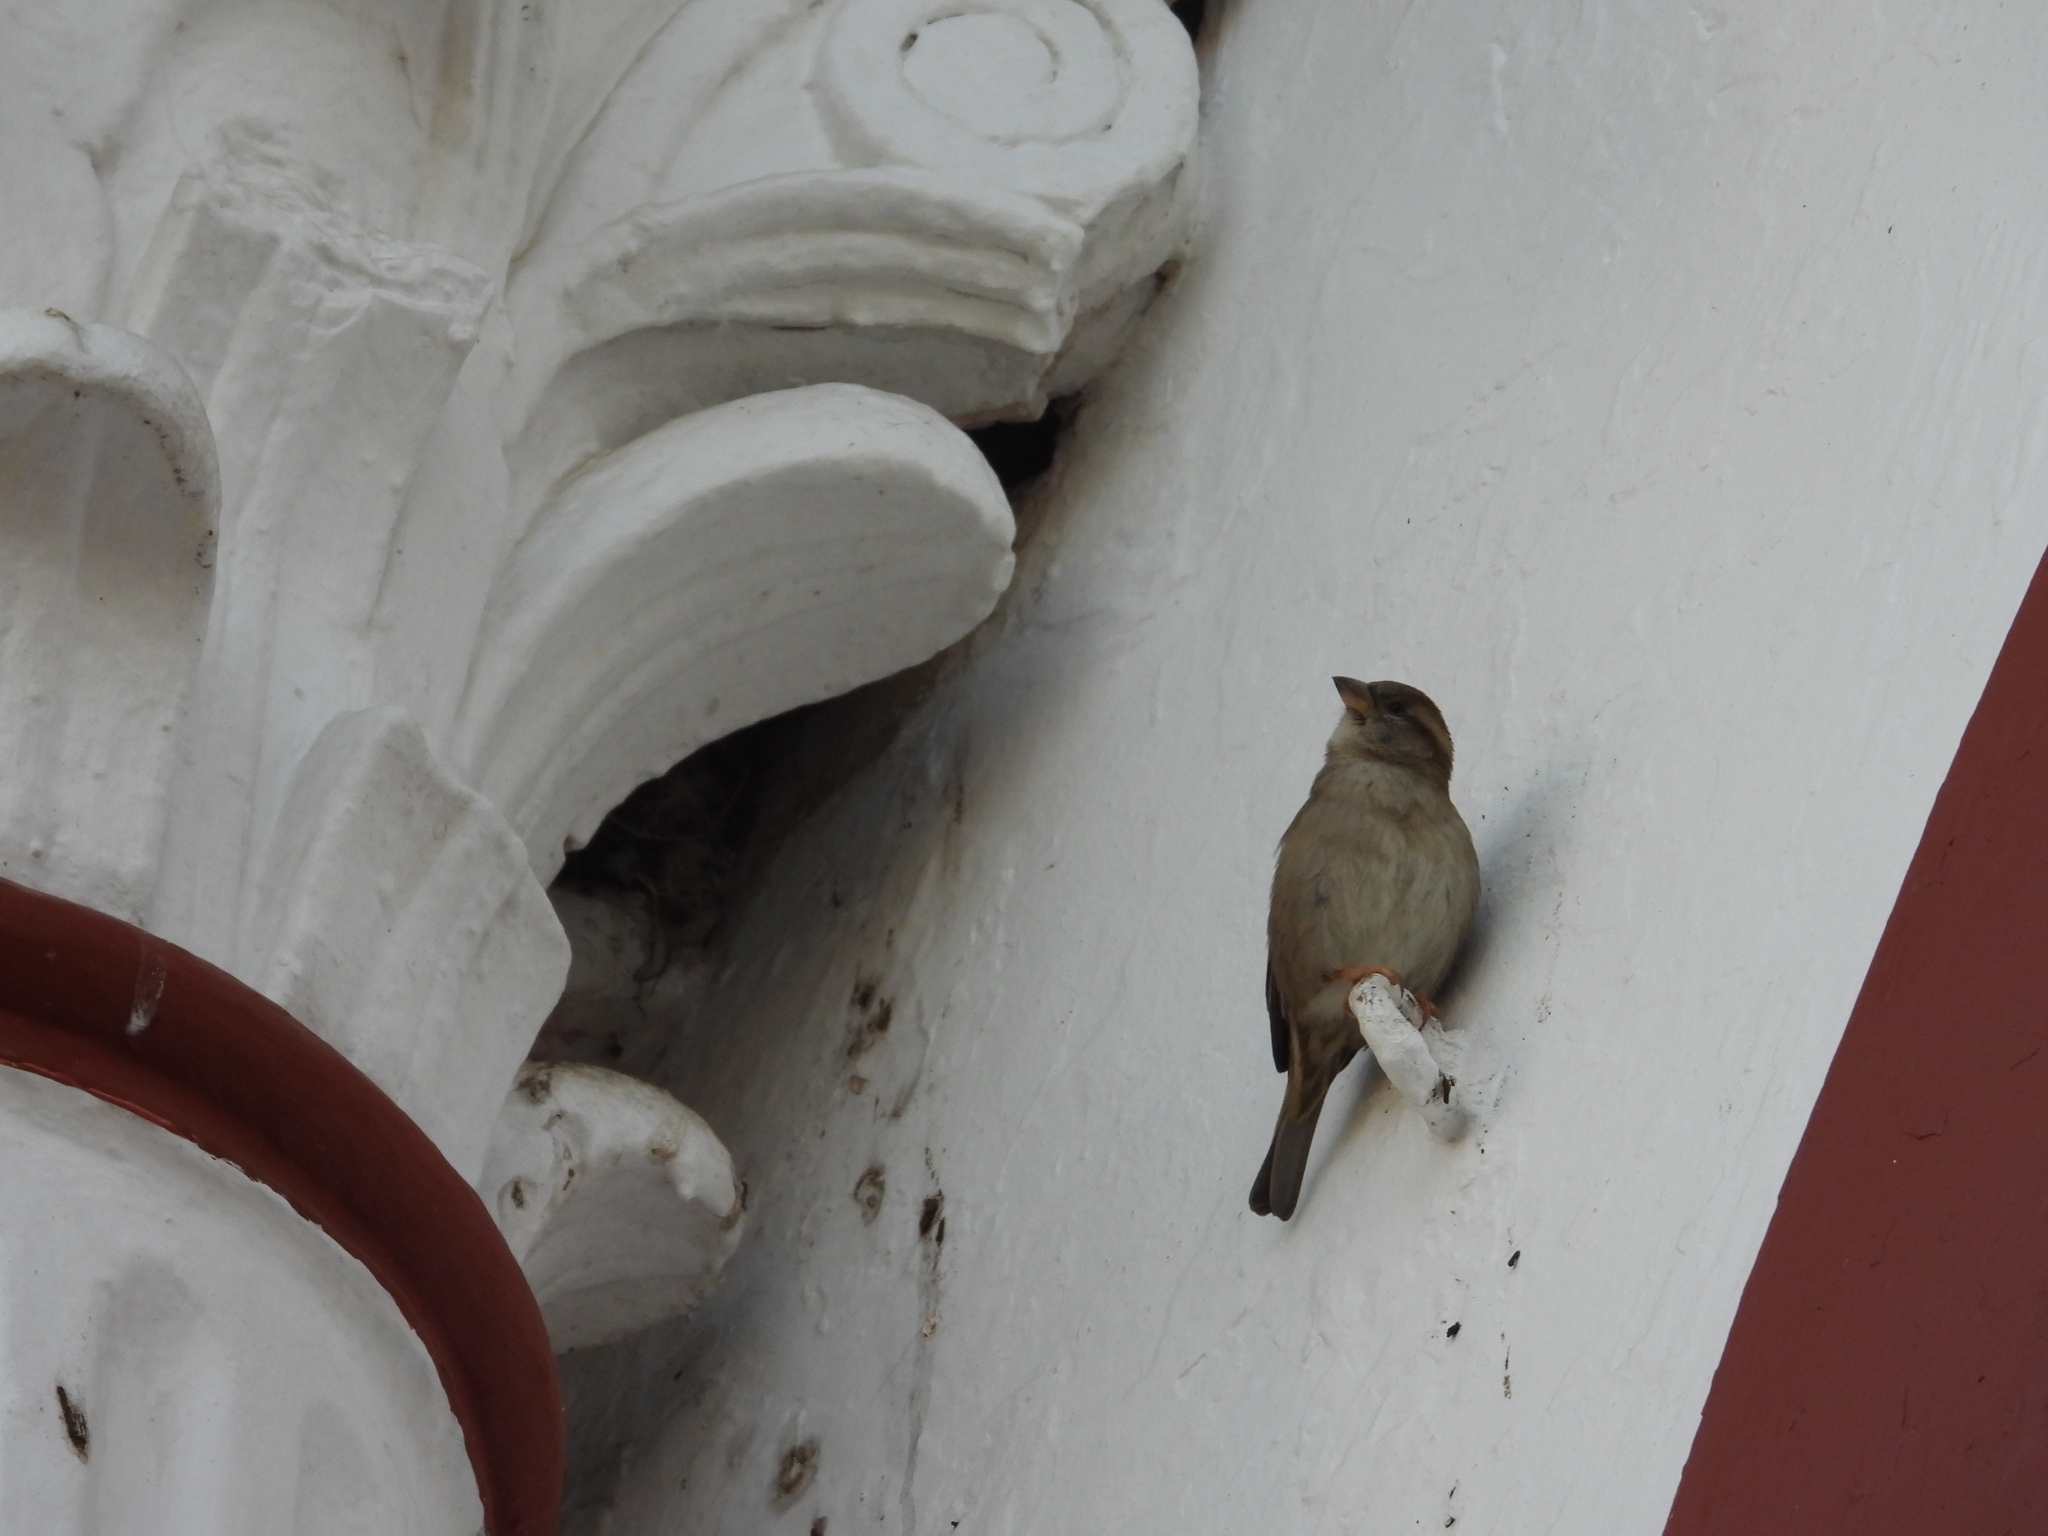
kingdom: Animalia
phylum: Chordata
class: Aves
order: Passeriformes
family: Passeridae
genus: Passer
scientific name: Passer domesticus
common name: House sparrow
